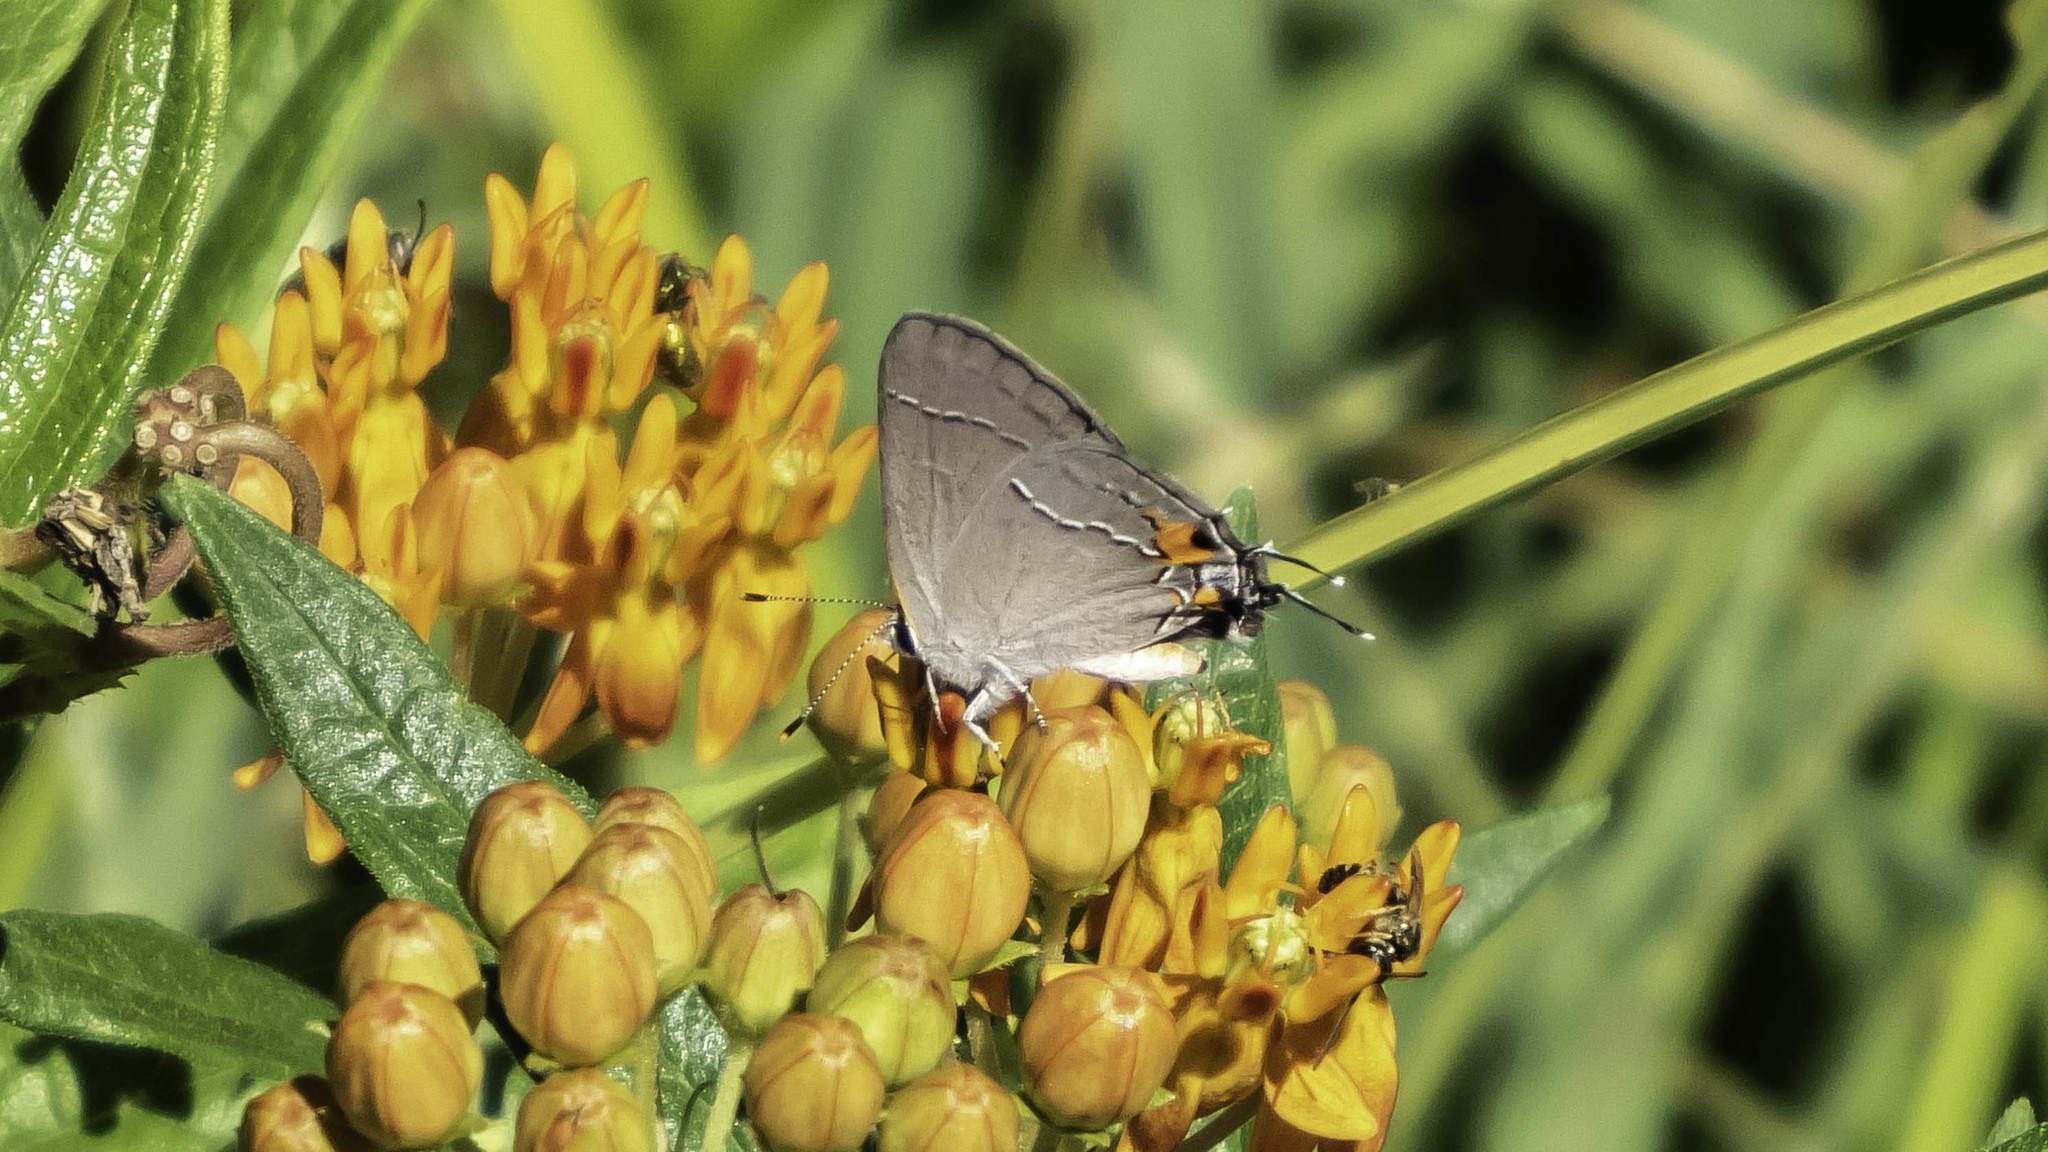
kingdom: Animalia
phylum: Arthropoda
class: Insecta
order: Lepidoptera
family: Lycaenidae
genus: Strymon
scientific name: Strymon melinus
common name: Gray hairstreak
